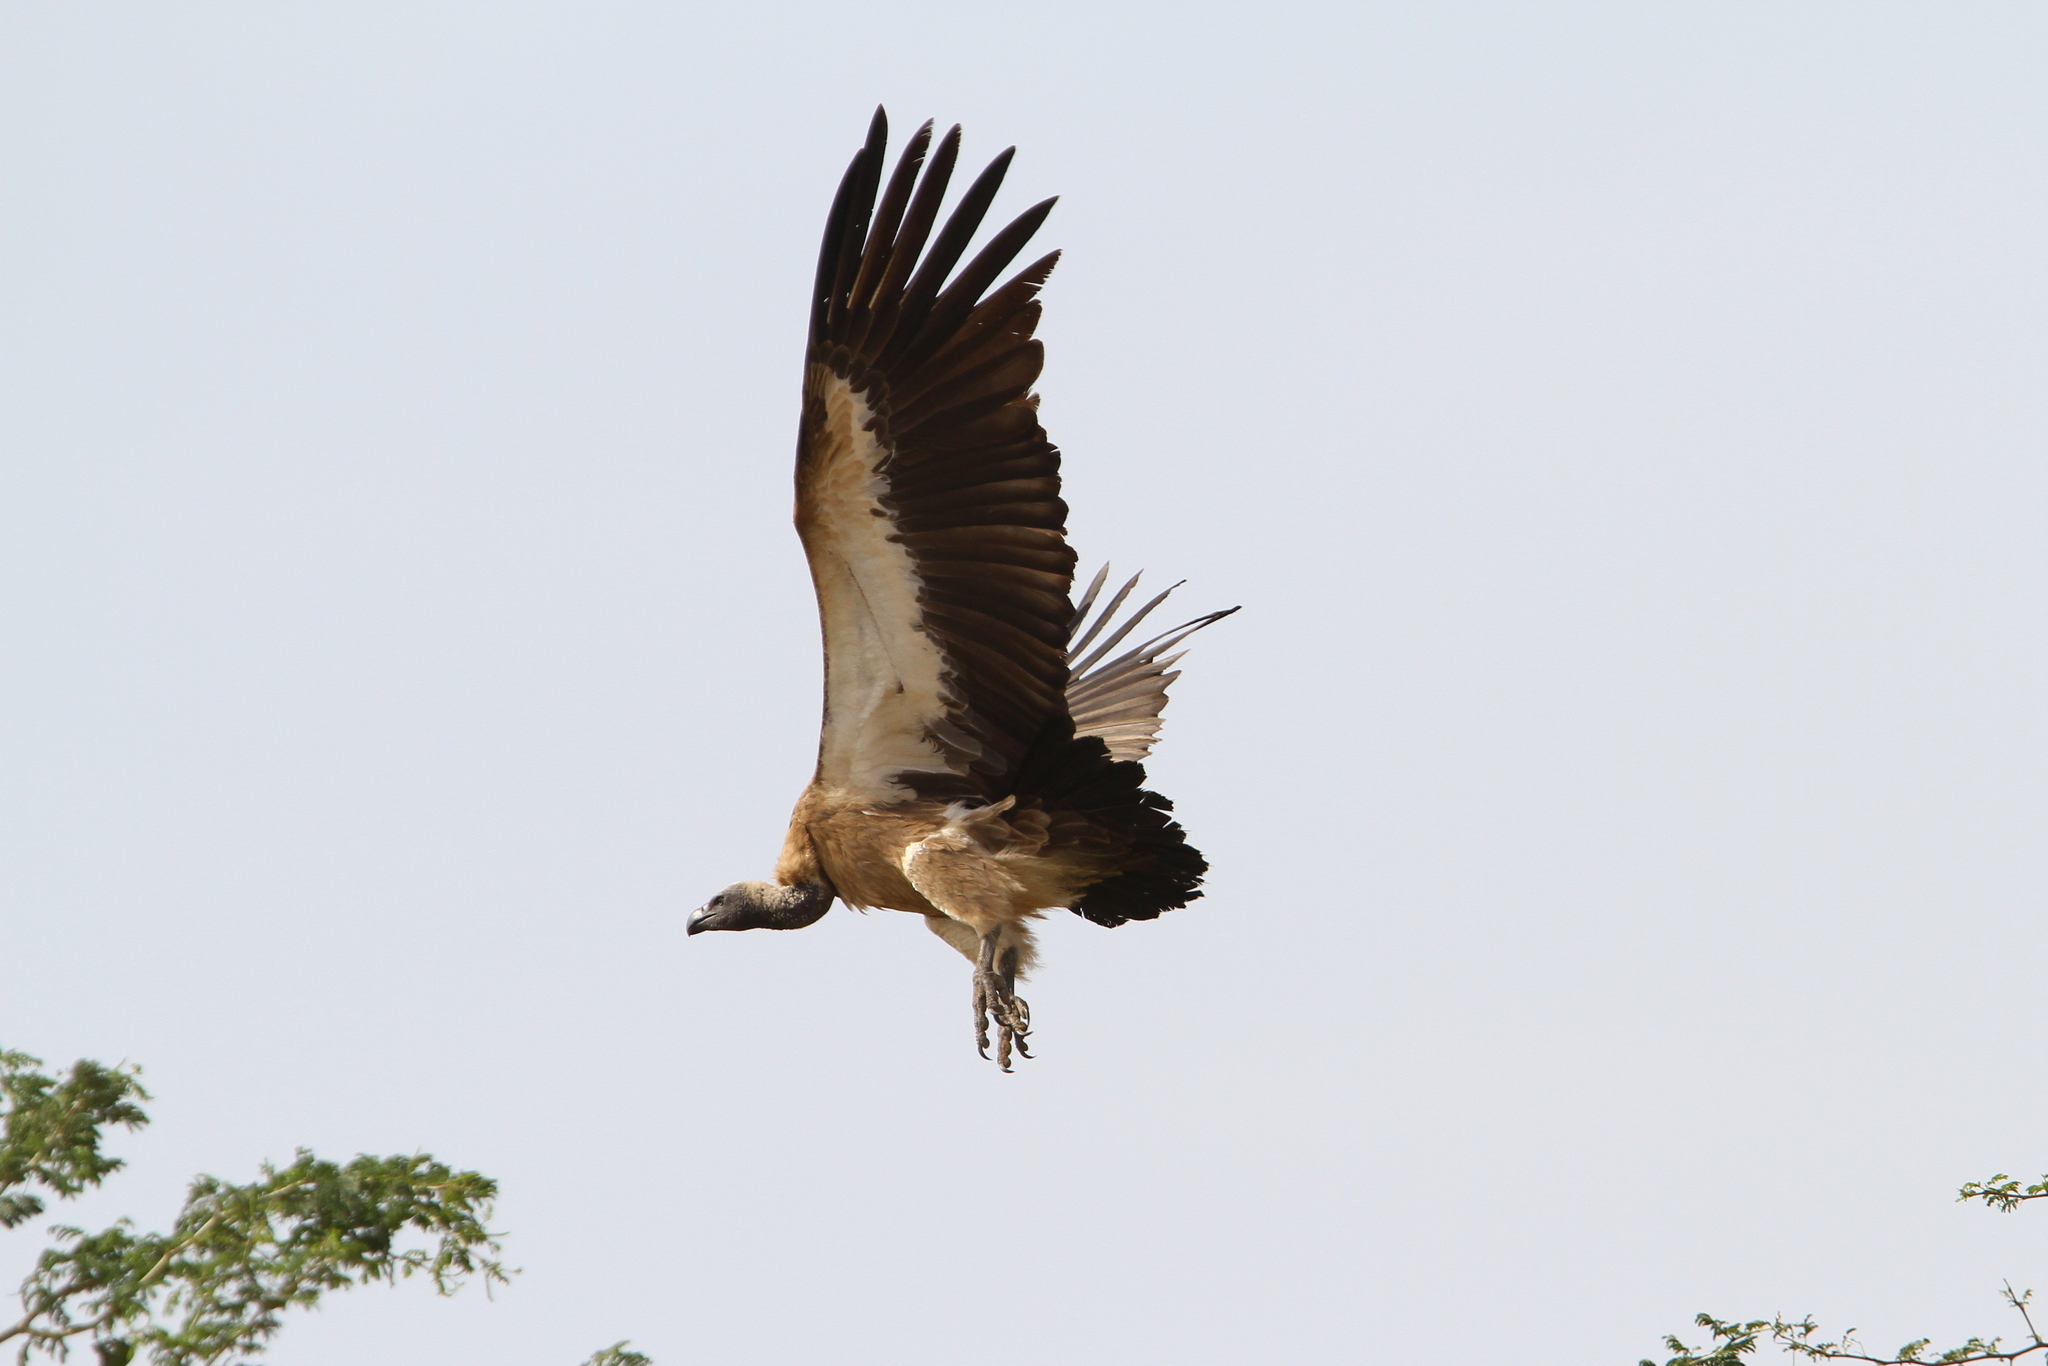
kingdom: Animalia
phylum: Chordata
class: Aves
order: Accipitriformes
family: Accipitridae
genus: Gyps
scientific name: Gyps africanus
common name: White-backed vulture
